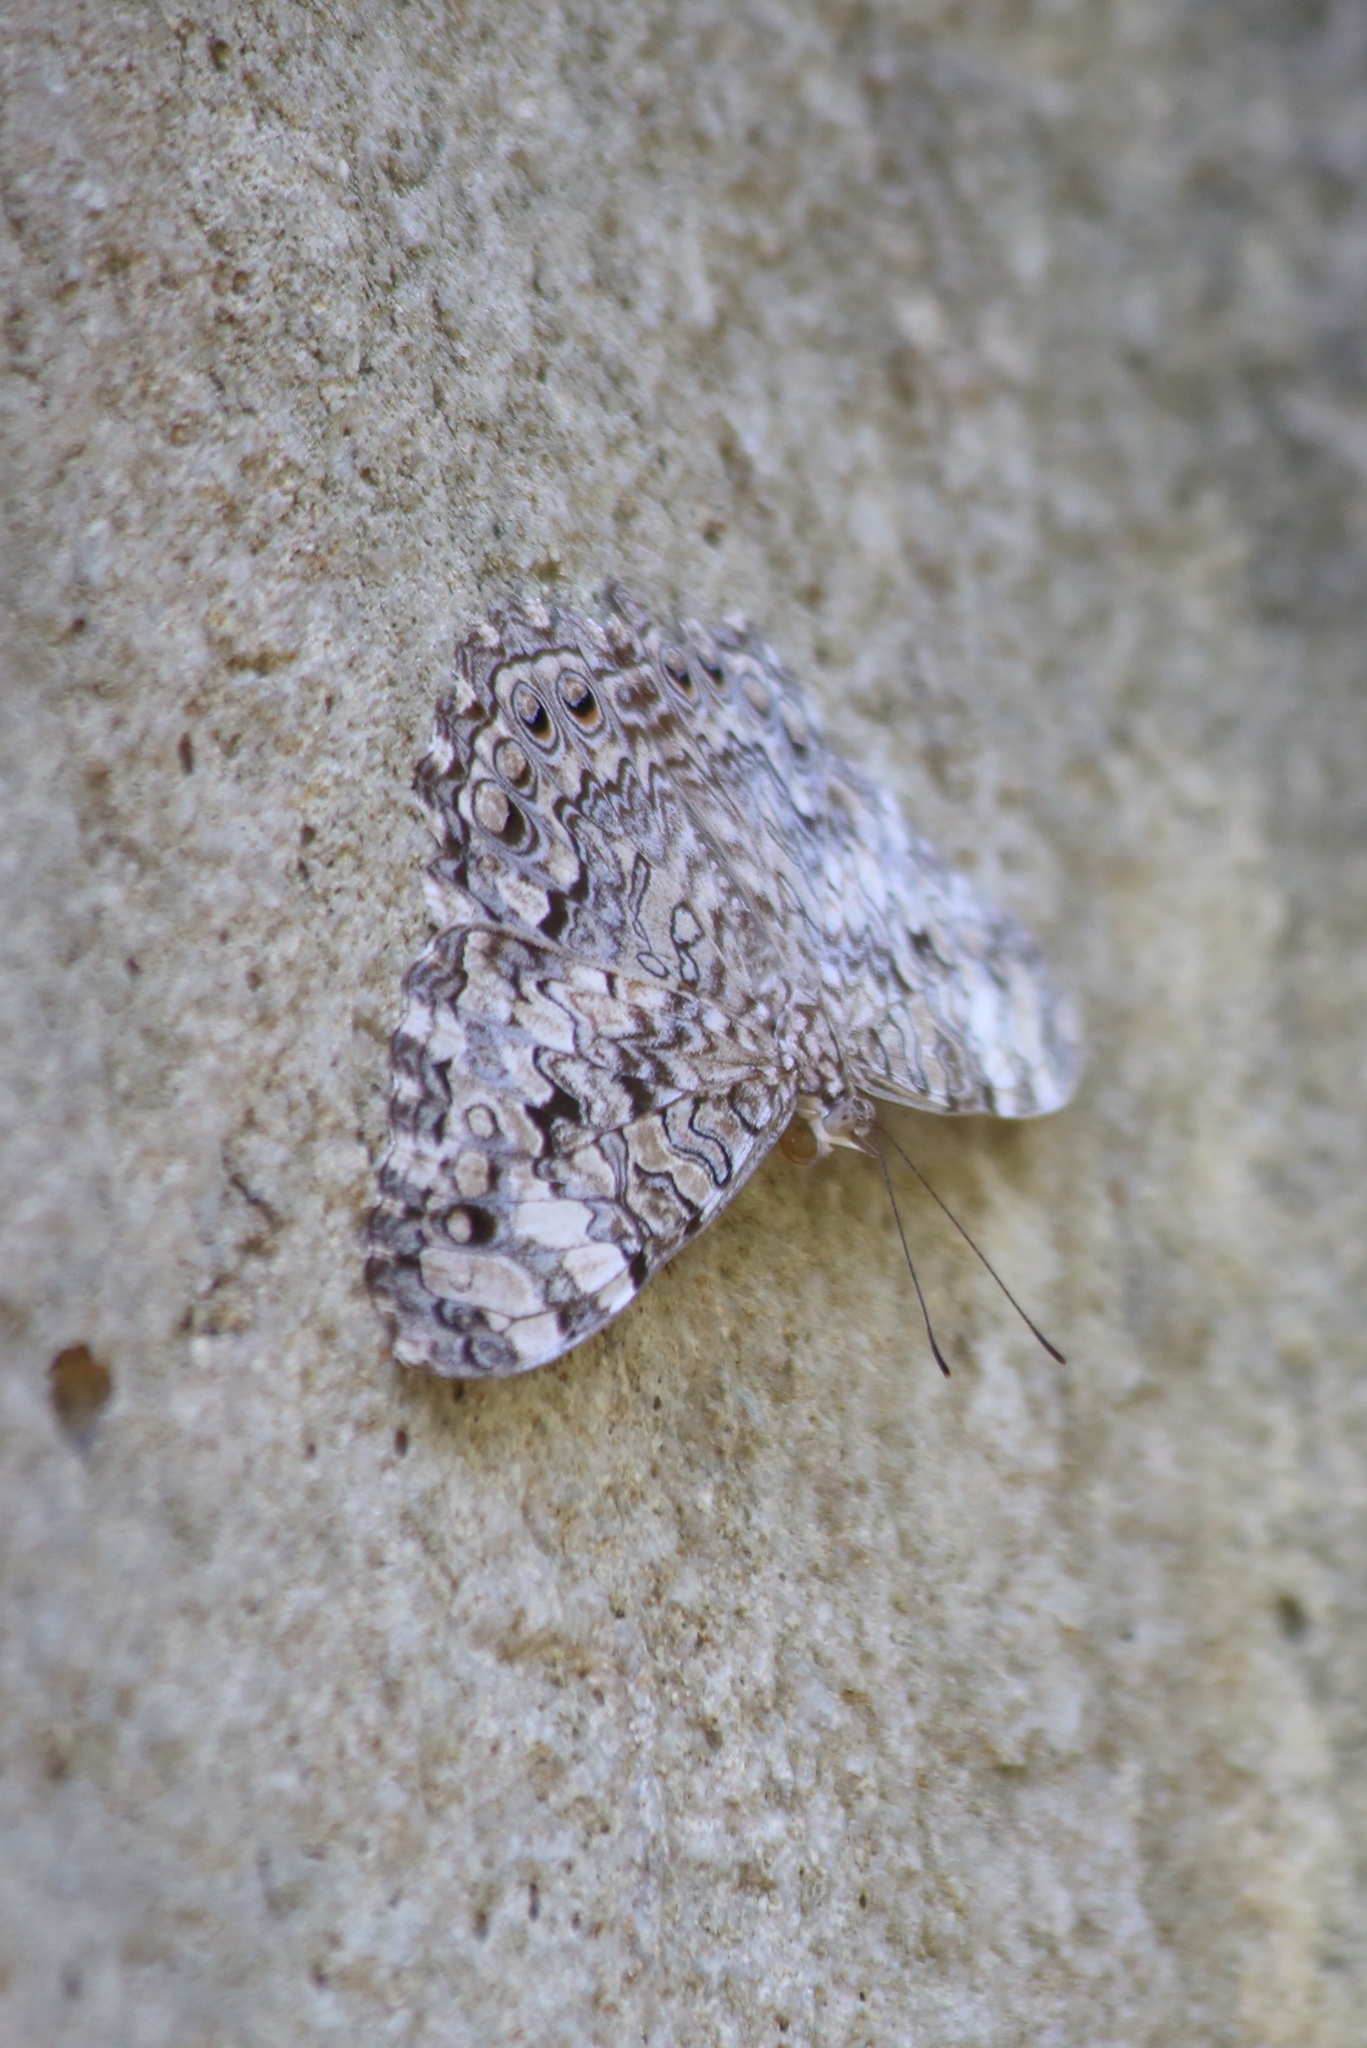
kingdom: Animalia
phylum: Arthropoda
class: Insecta
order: Lepidoptera
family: Nymphalidae
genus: Hamadryas
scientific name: Hamadryas februa
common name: Gray cracker
